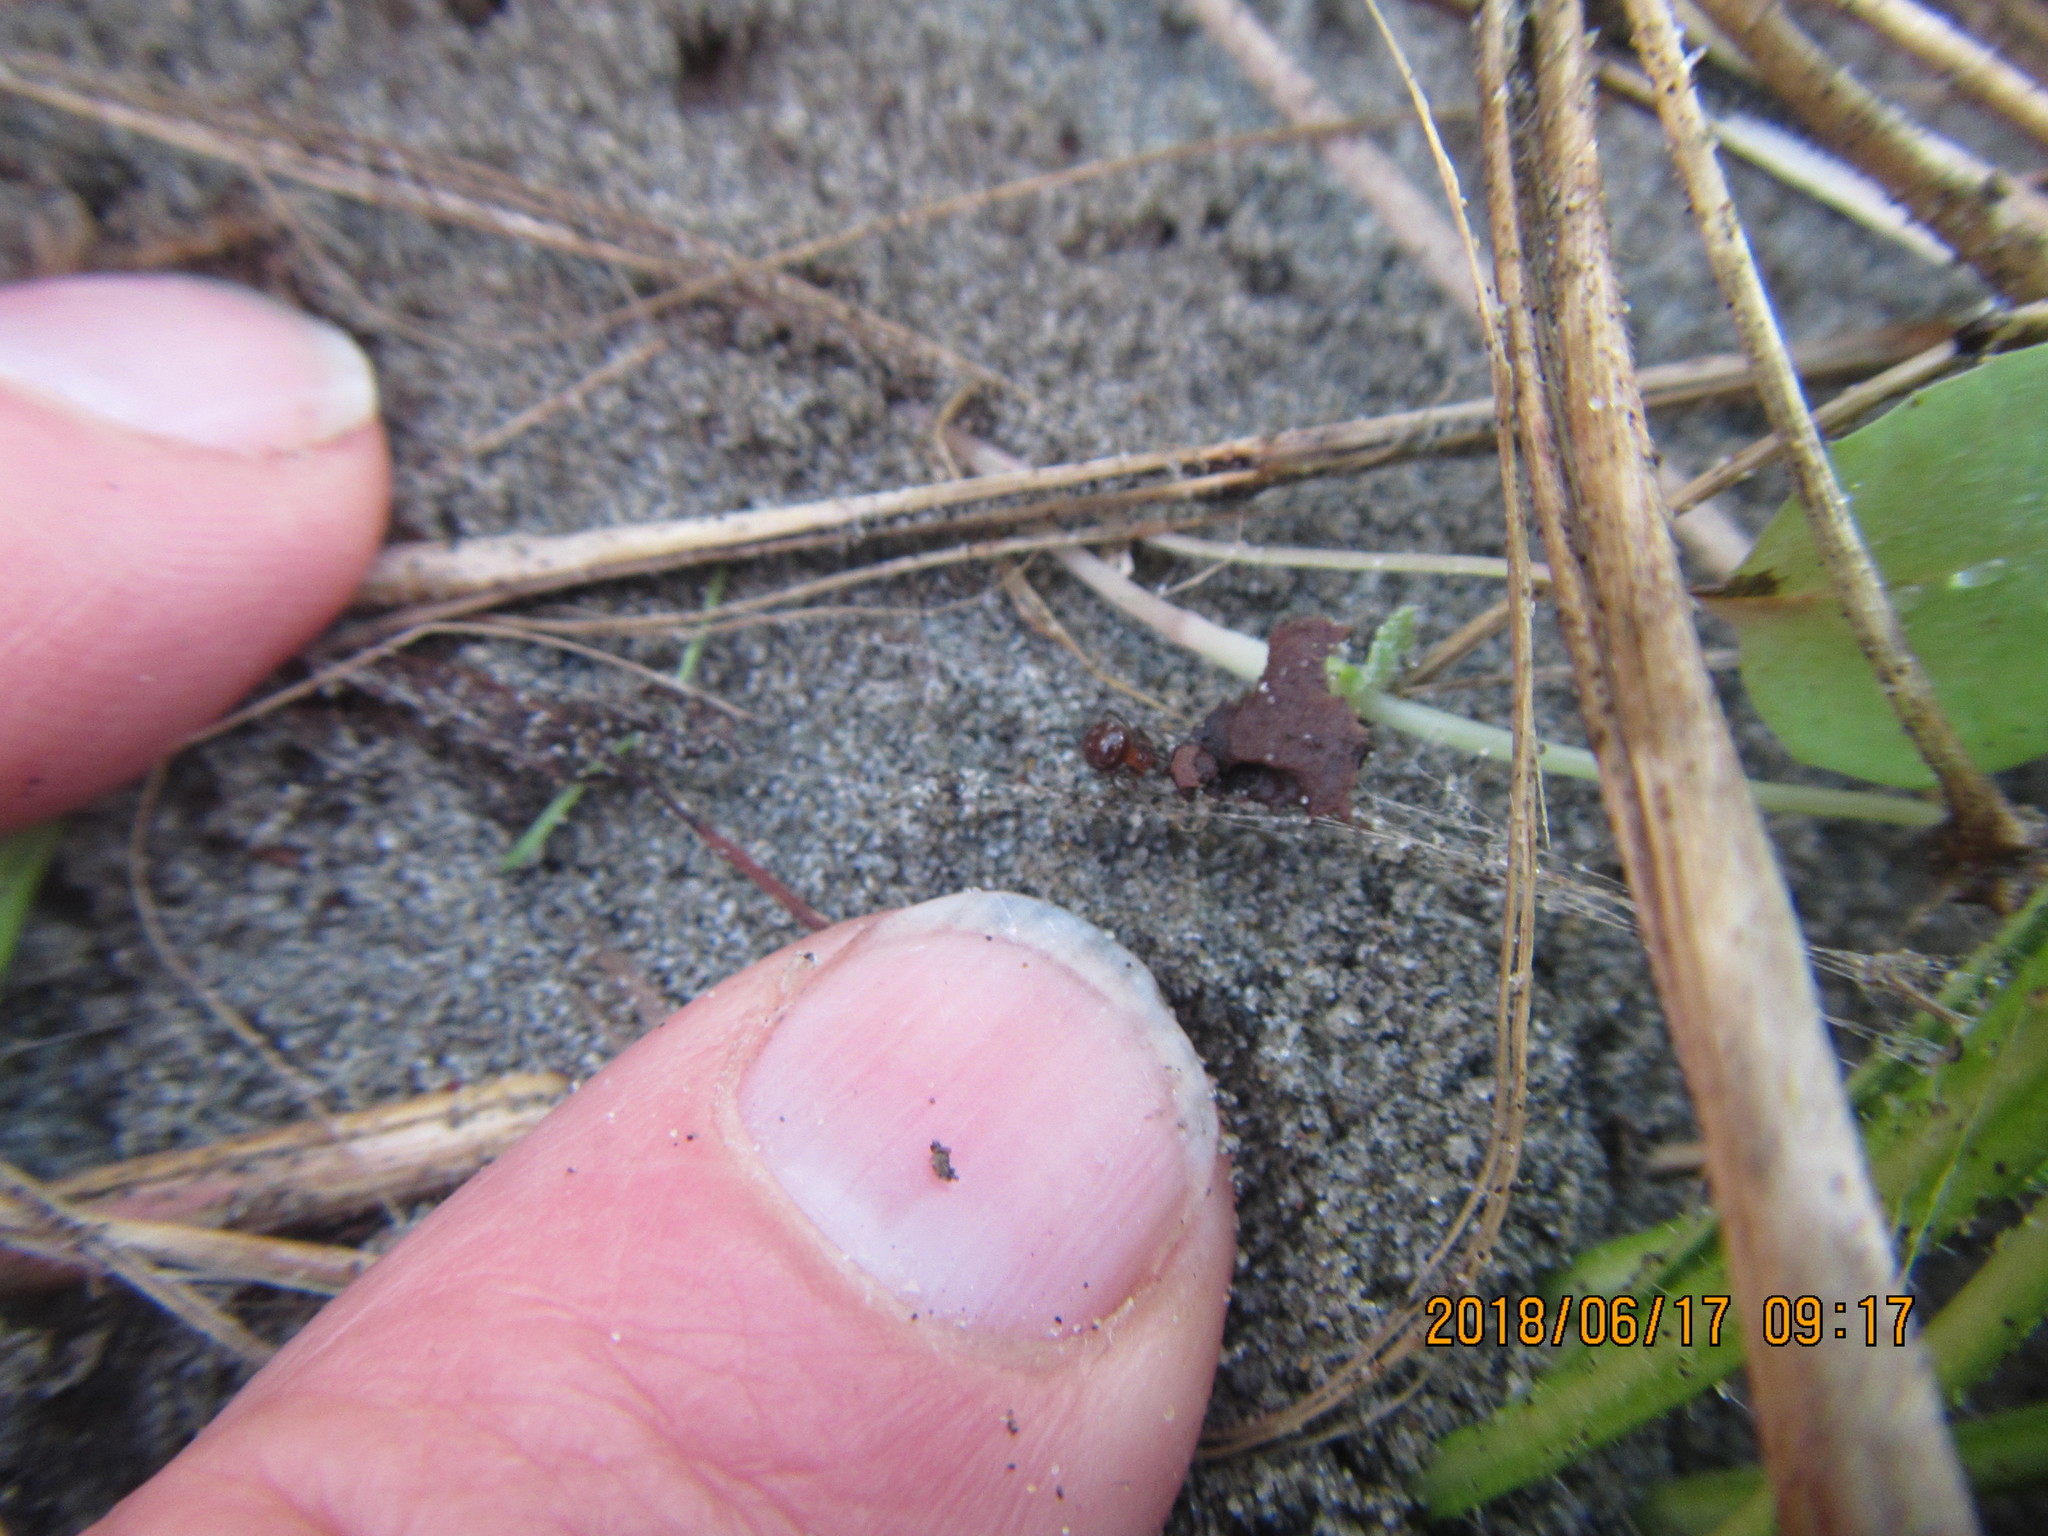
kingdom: Animalia
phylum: Arthropoda
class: Arachnida
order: Araneae
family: Thomisidae
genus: Sidymella
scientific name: Sidymella trapezia
